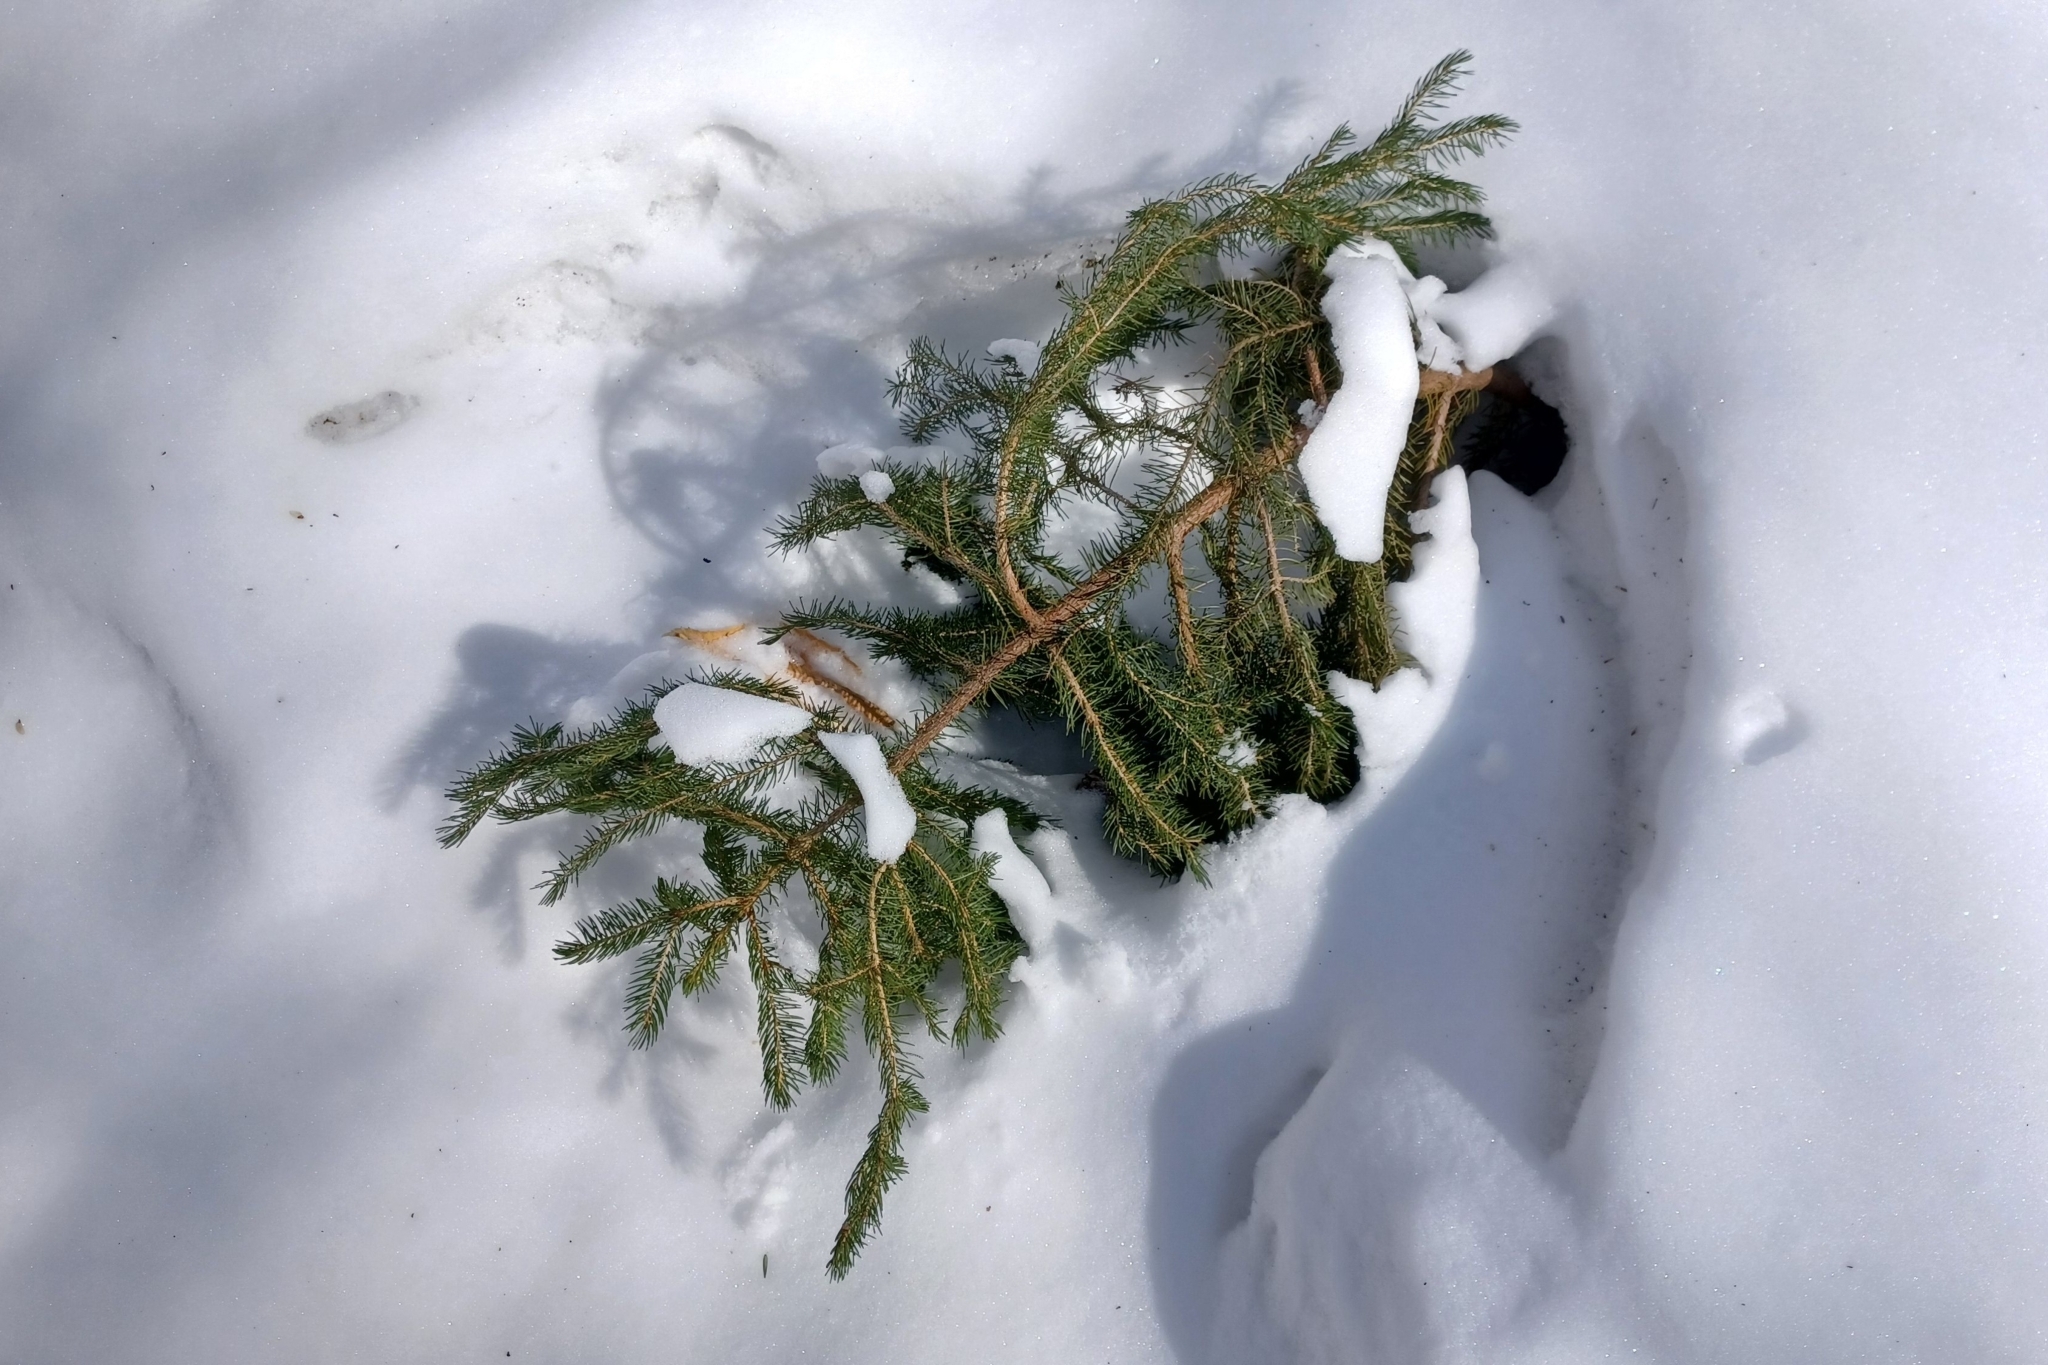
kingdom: Plantae
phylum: Tracheophyta
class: Pinopsida
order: Pinales
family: Pinaceae
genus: Picea
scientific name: Picea rubens
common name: Red spruce
